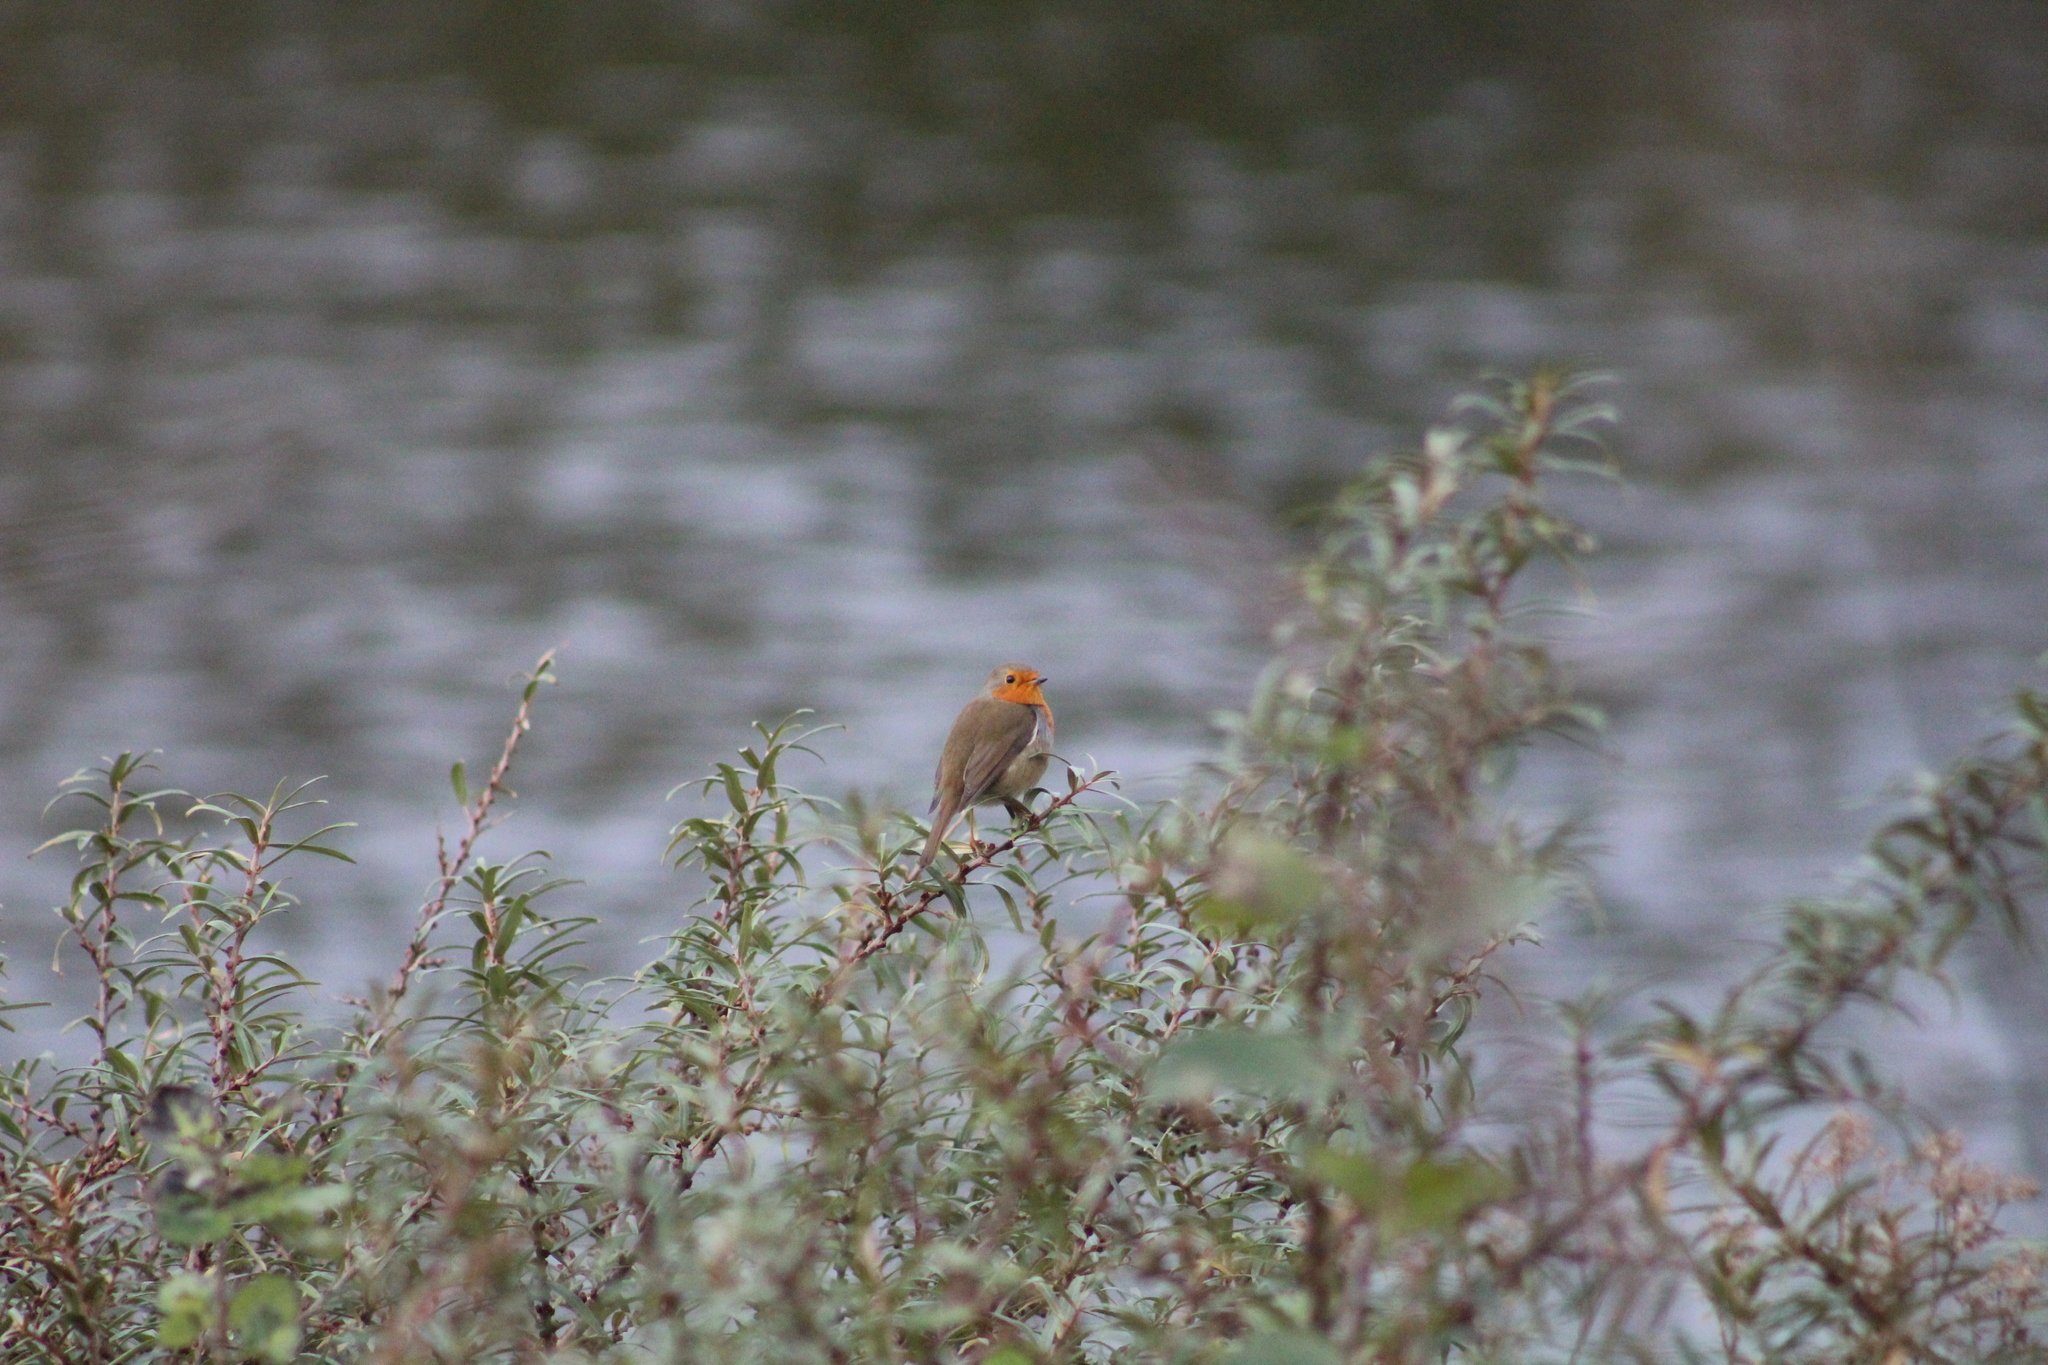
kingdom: Animalia
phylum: Chordata
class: Aves
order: Passeriformes
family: Muscicapidae
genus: Erithacus
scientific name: Erithacus rubecula
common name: European robin
